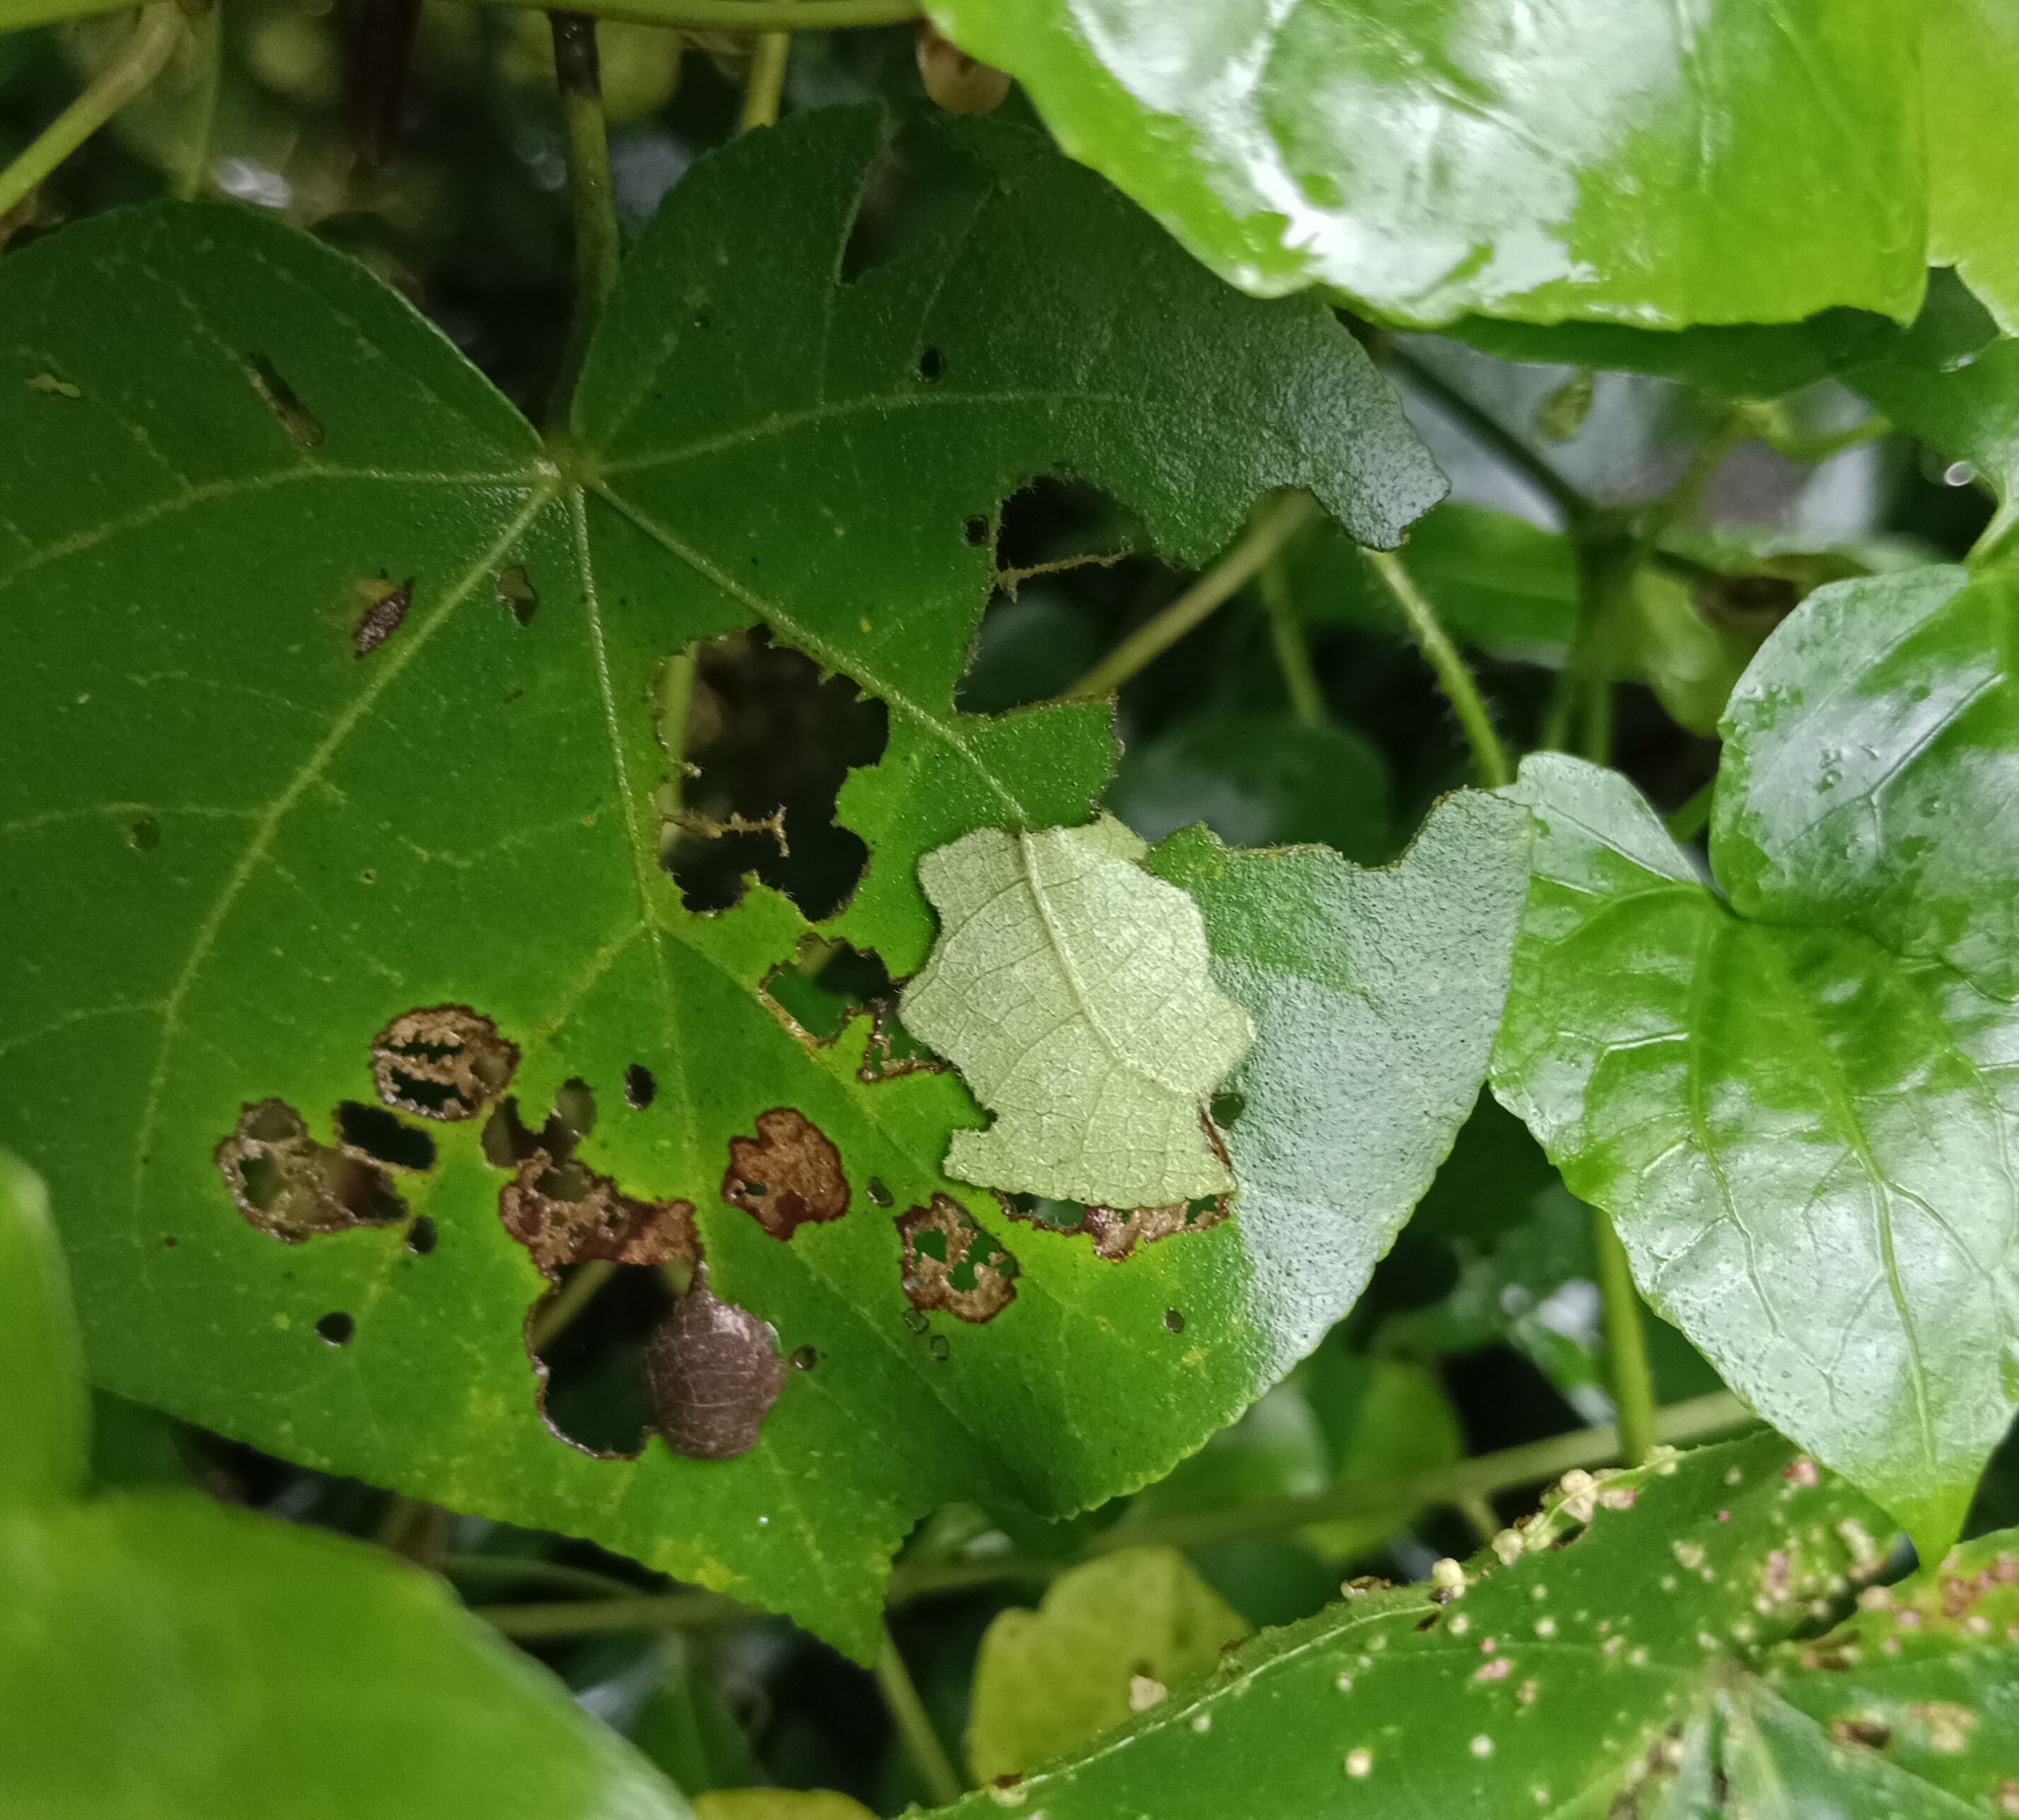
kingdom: Animalia
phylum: Arthropoda
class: Insecta
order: Lepidoptera
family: Hesperiidae
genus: Coladenia
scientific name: Coladenia
